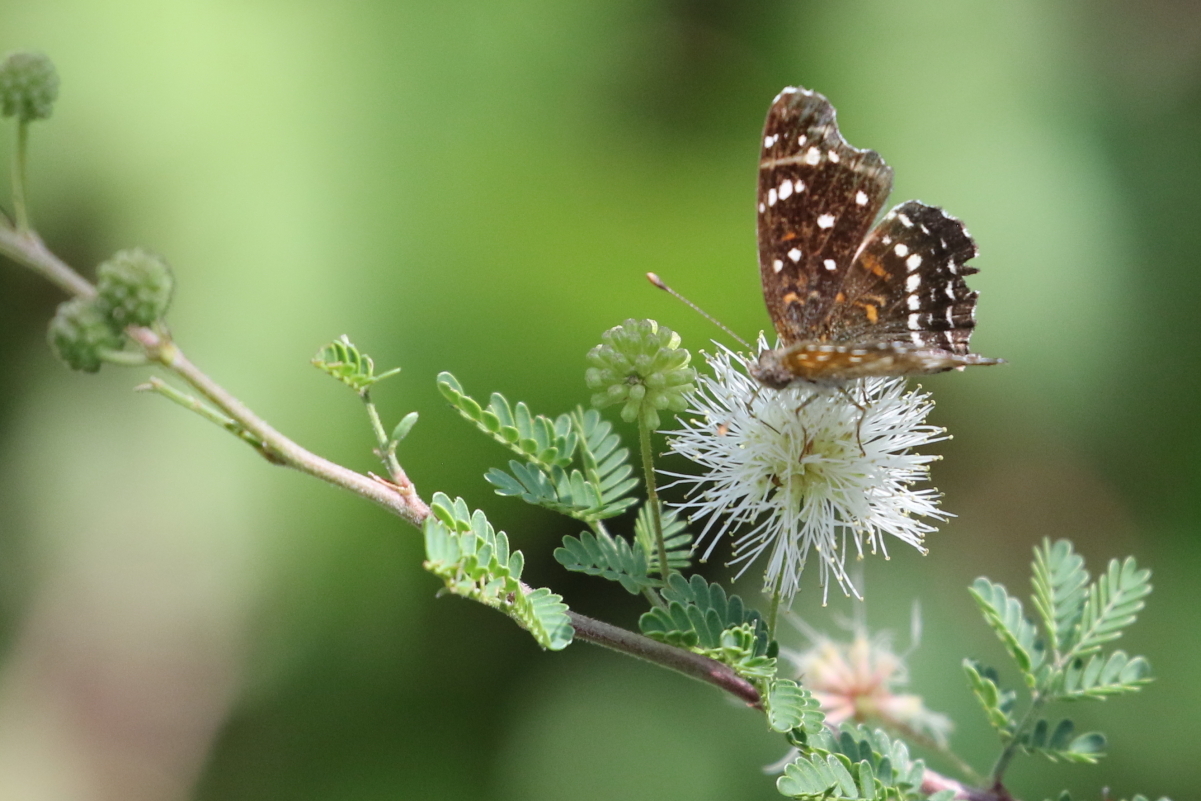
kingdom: Animalia
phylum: Arthropoda
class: Insecta
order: Lepidoptera
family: Nymphalidae
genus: Anthanassa
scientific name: Anthanassa texana
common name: Texan crescent
